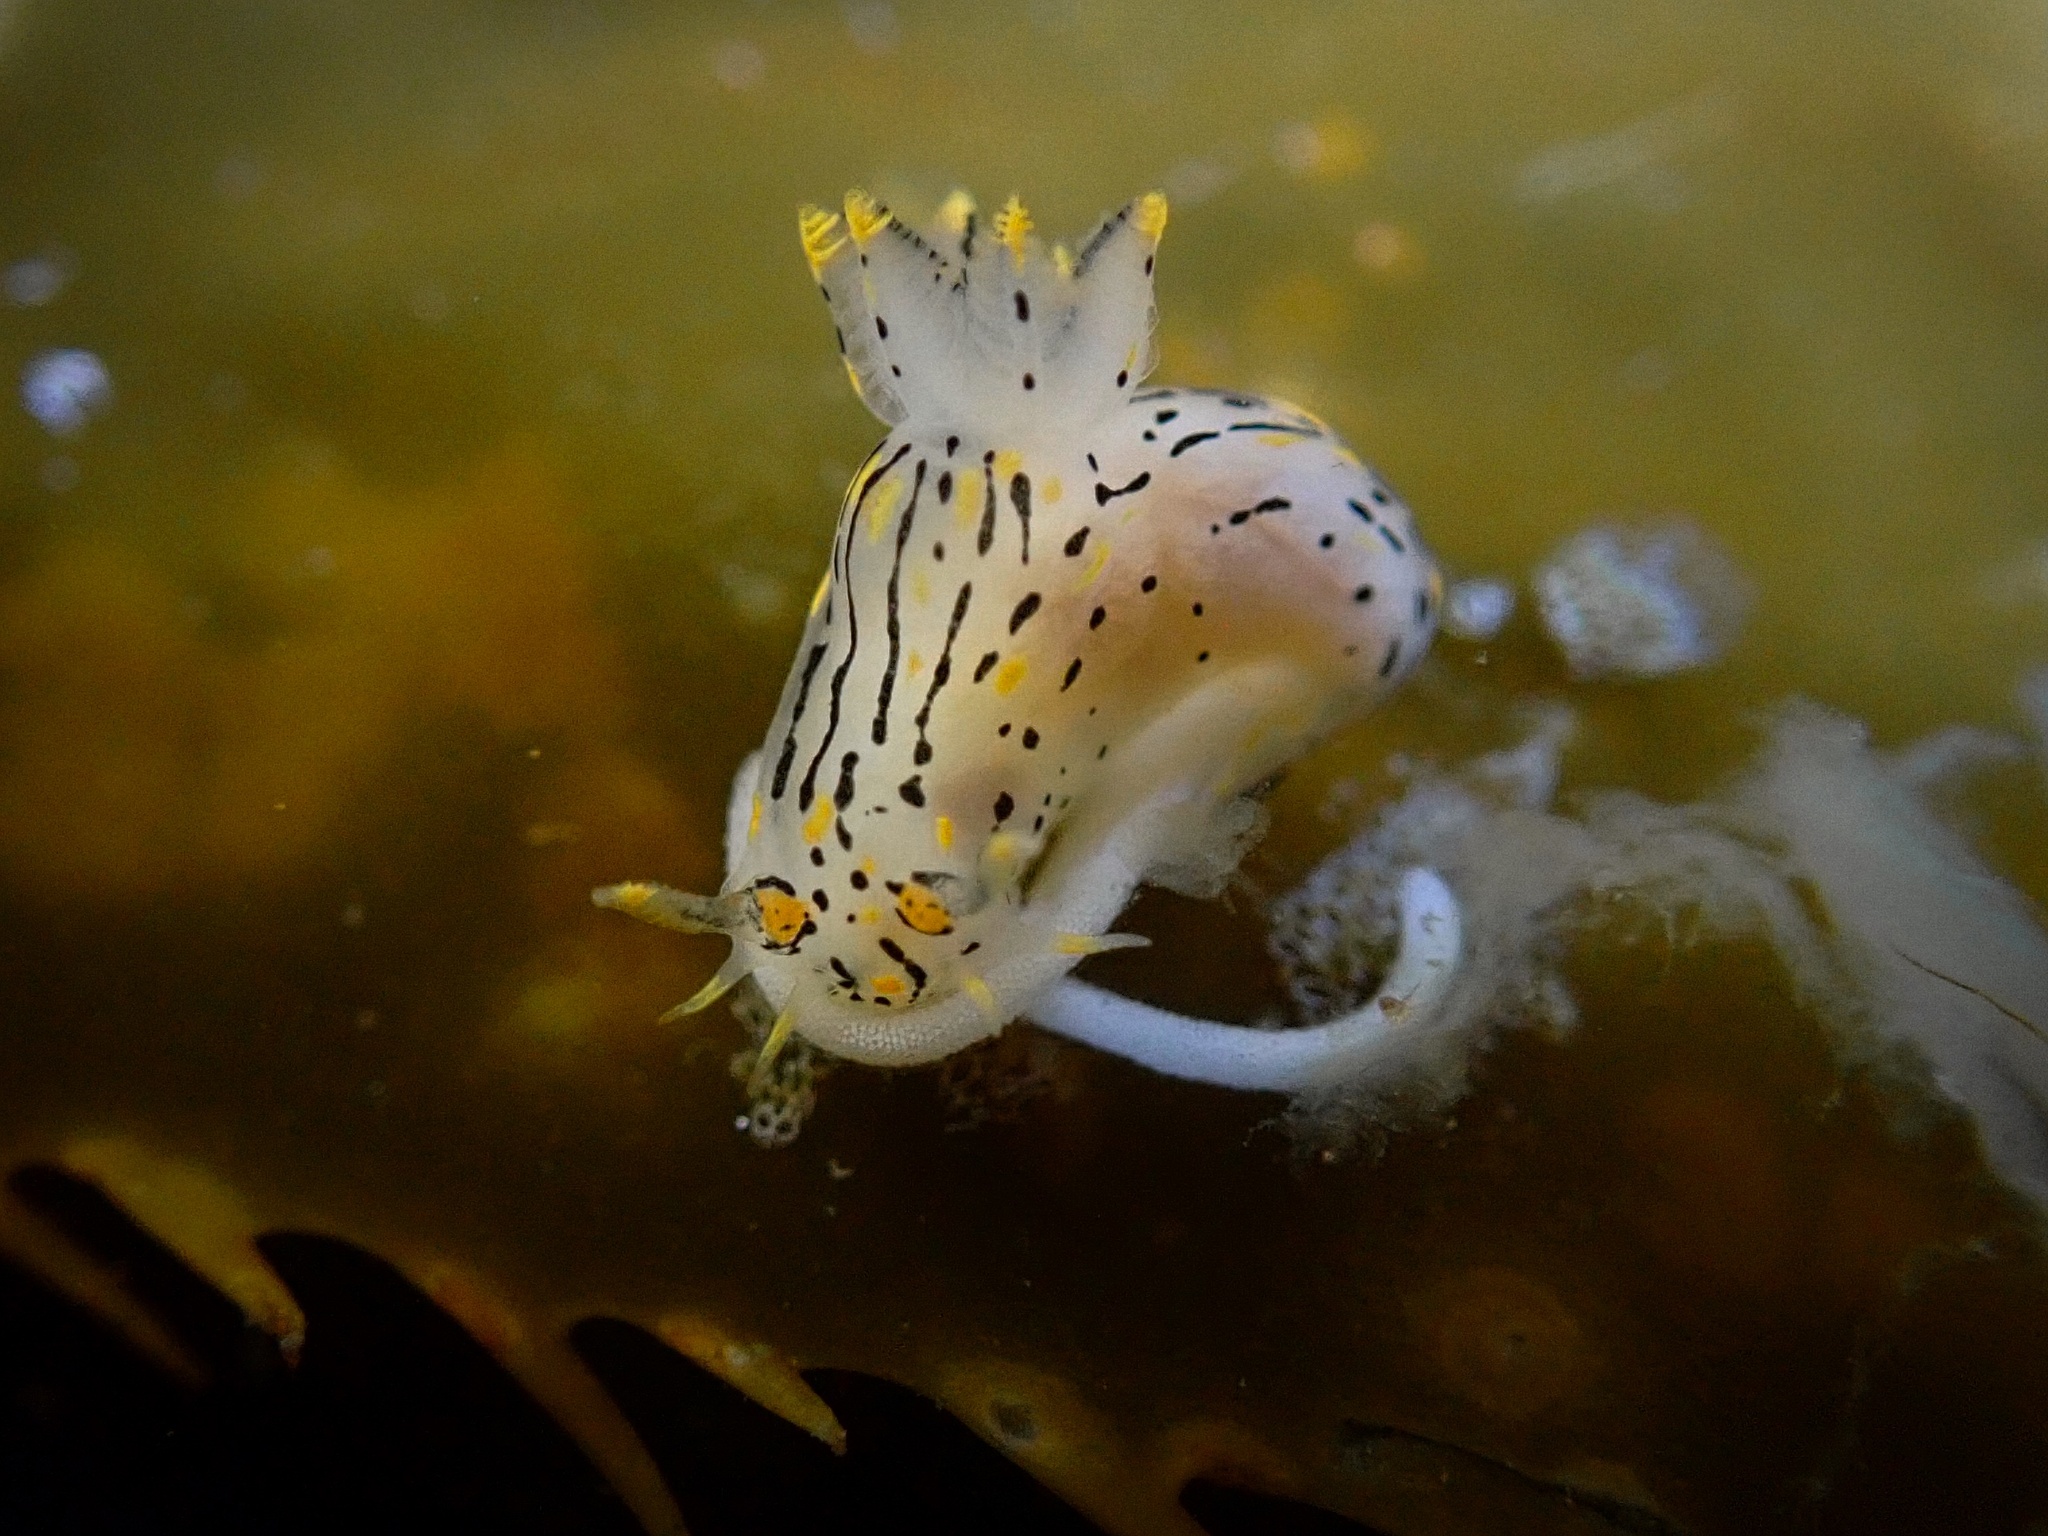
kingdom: Animalia
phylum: Mollusca
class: Gastropoda
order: Nudibranchia
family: Polyceridae
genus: Polycera
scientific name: Polycera atra
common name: Orange-spike polycera
